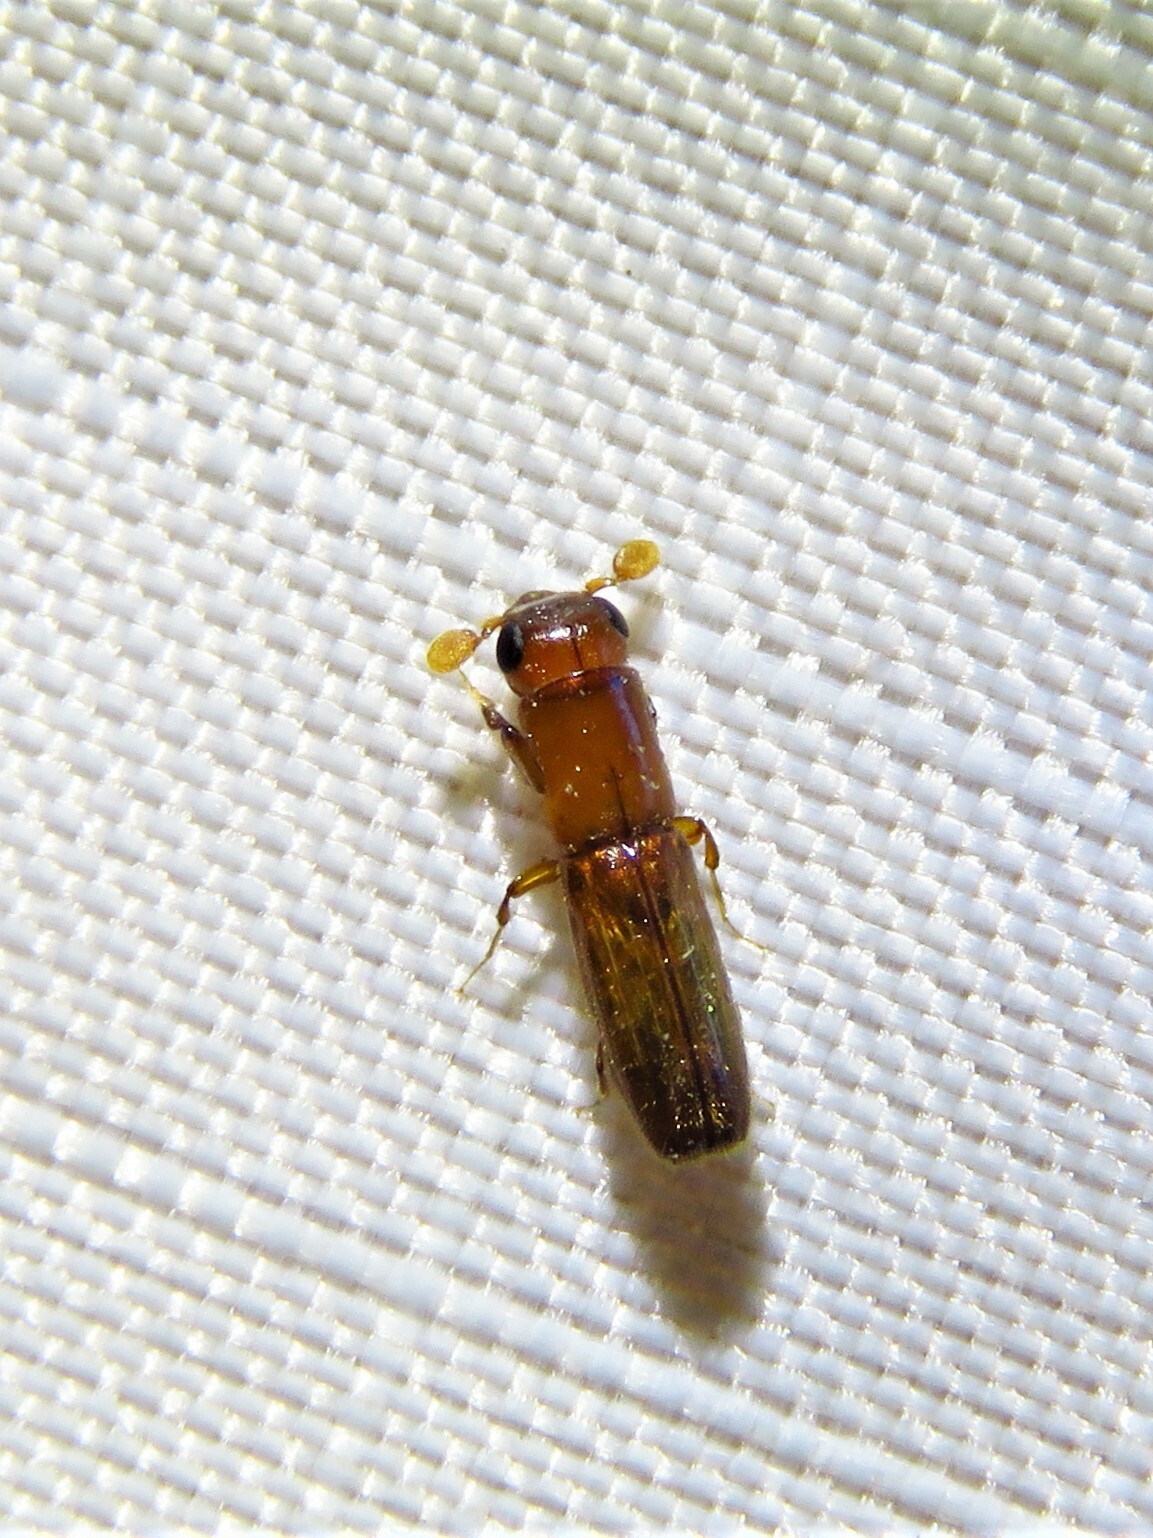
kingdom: Animalia
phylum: Arthropoda
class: Insecta
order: Coleoptera
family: Curculionidae
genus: Euplatypus
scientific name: Euplatypus compositus
